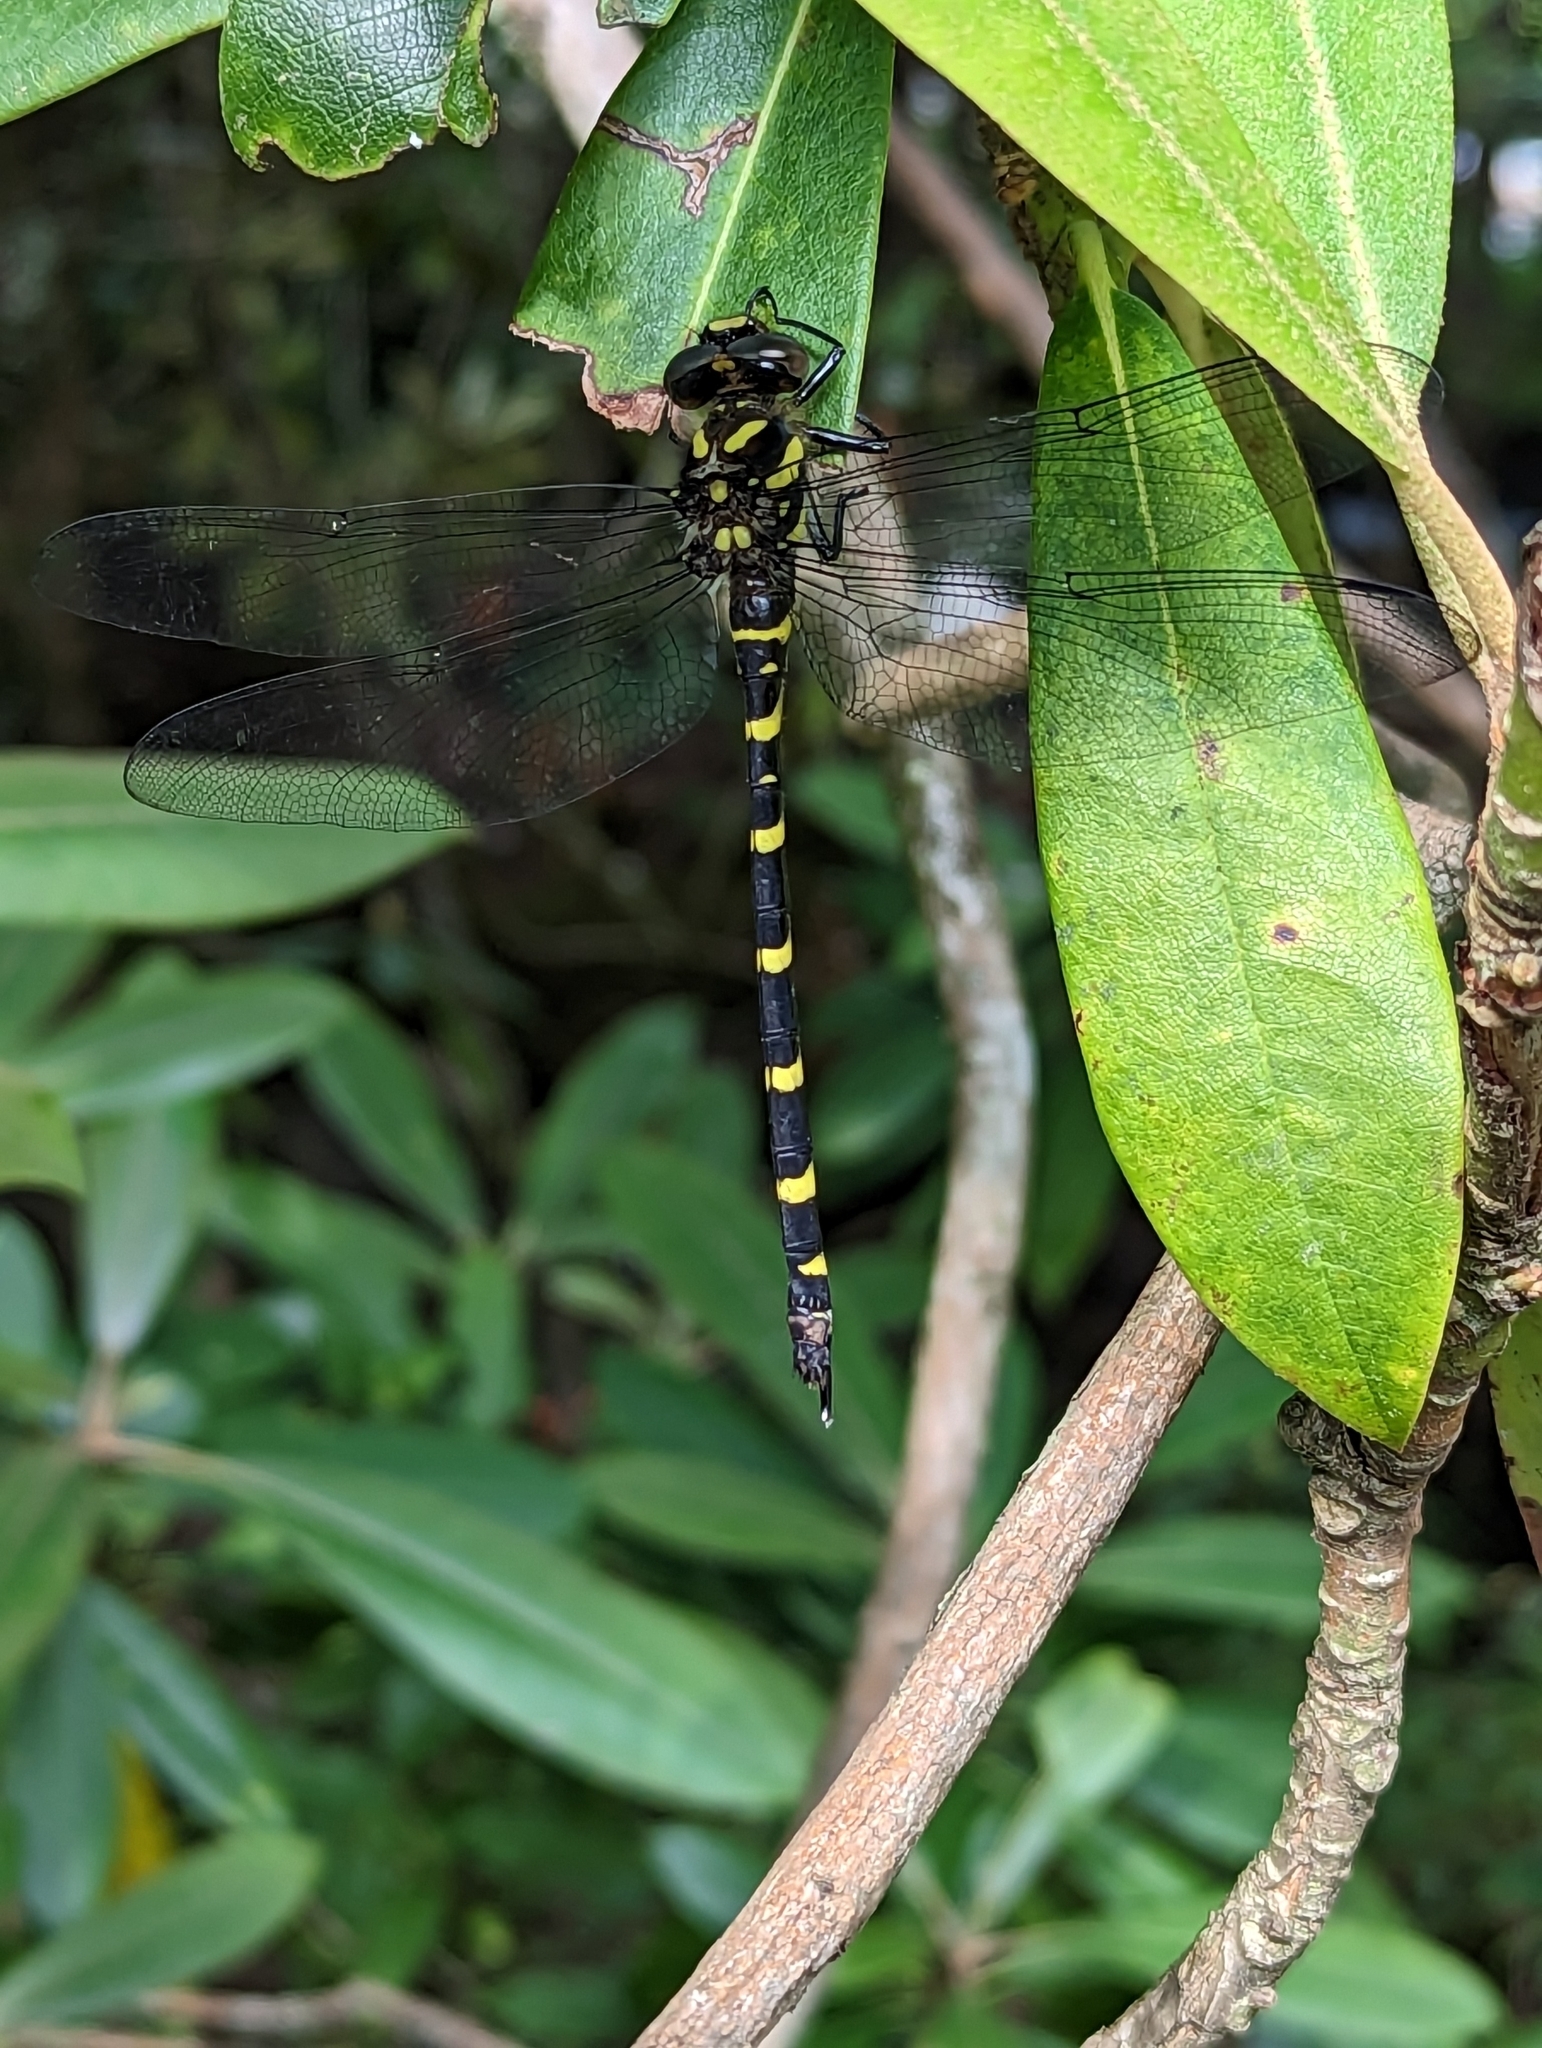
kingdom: Animalia
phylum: Arthropoda
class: Insecta
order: Odonata
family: Cordulegastridae
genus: Cordulegaster
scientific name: Cordulegaster erronea
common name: Tiger spiketail
